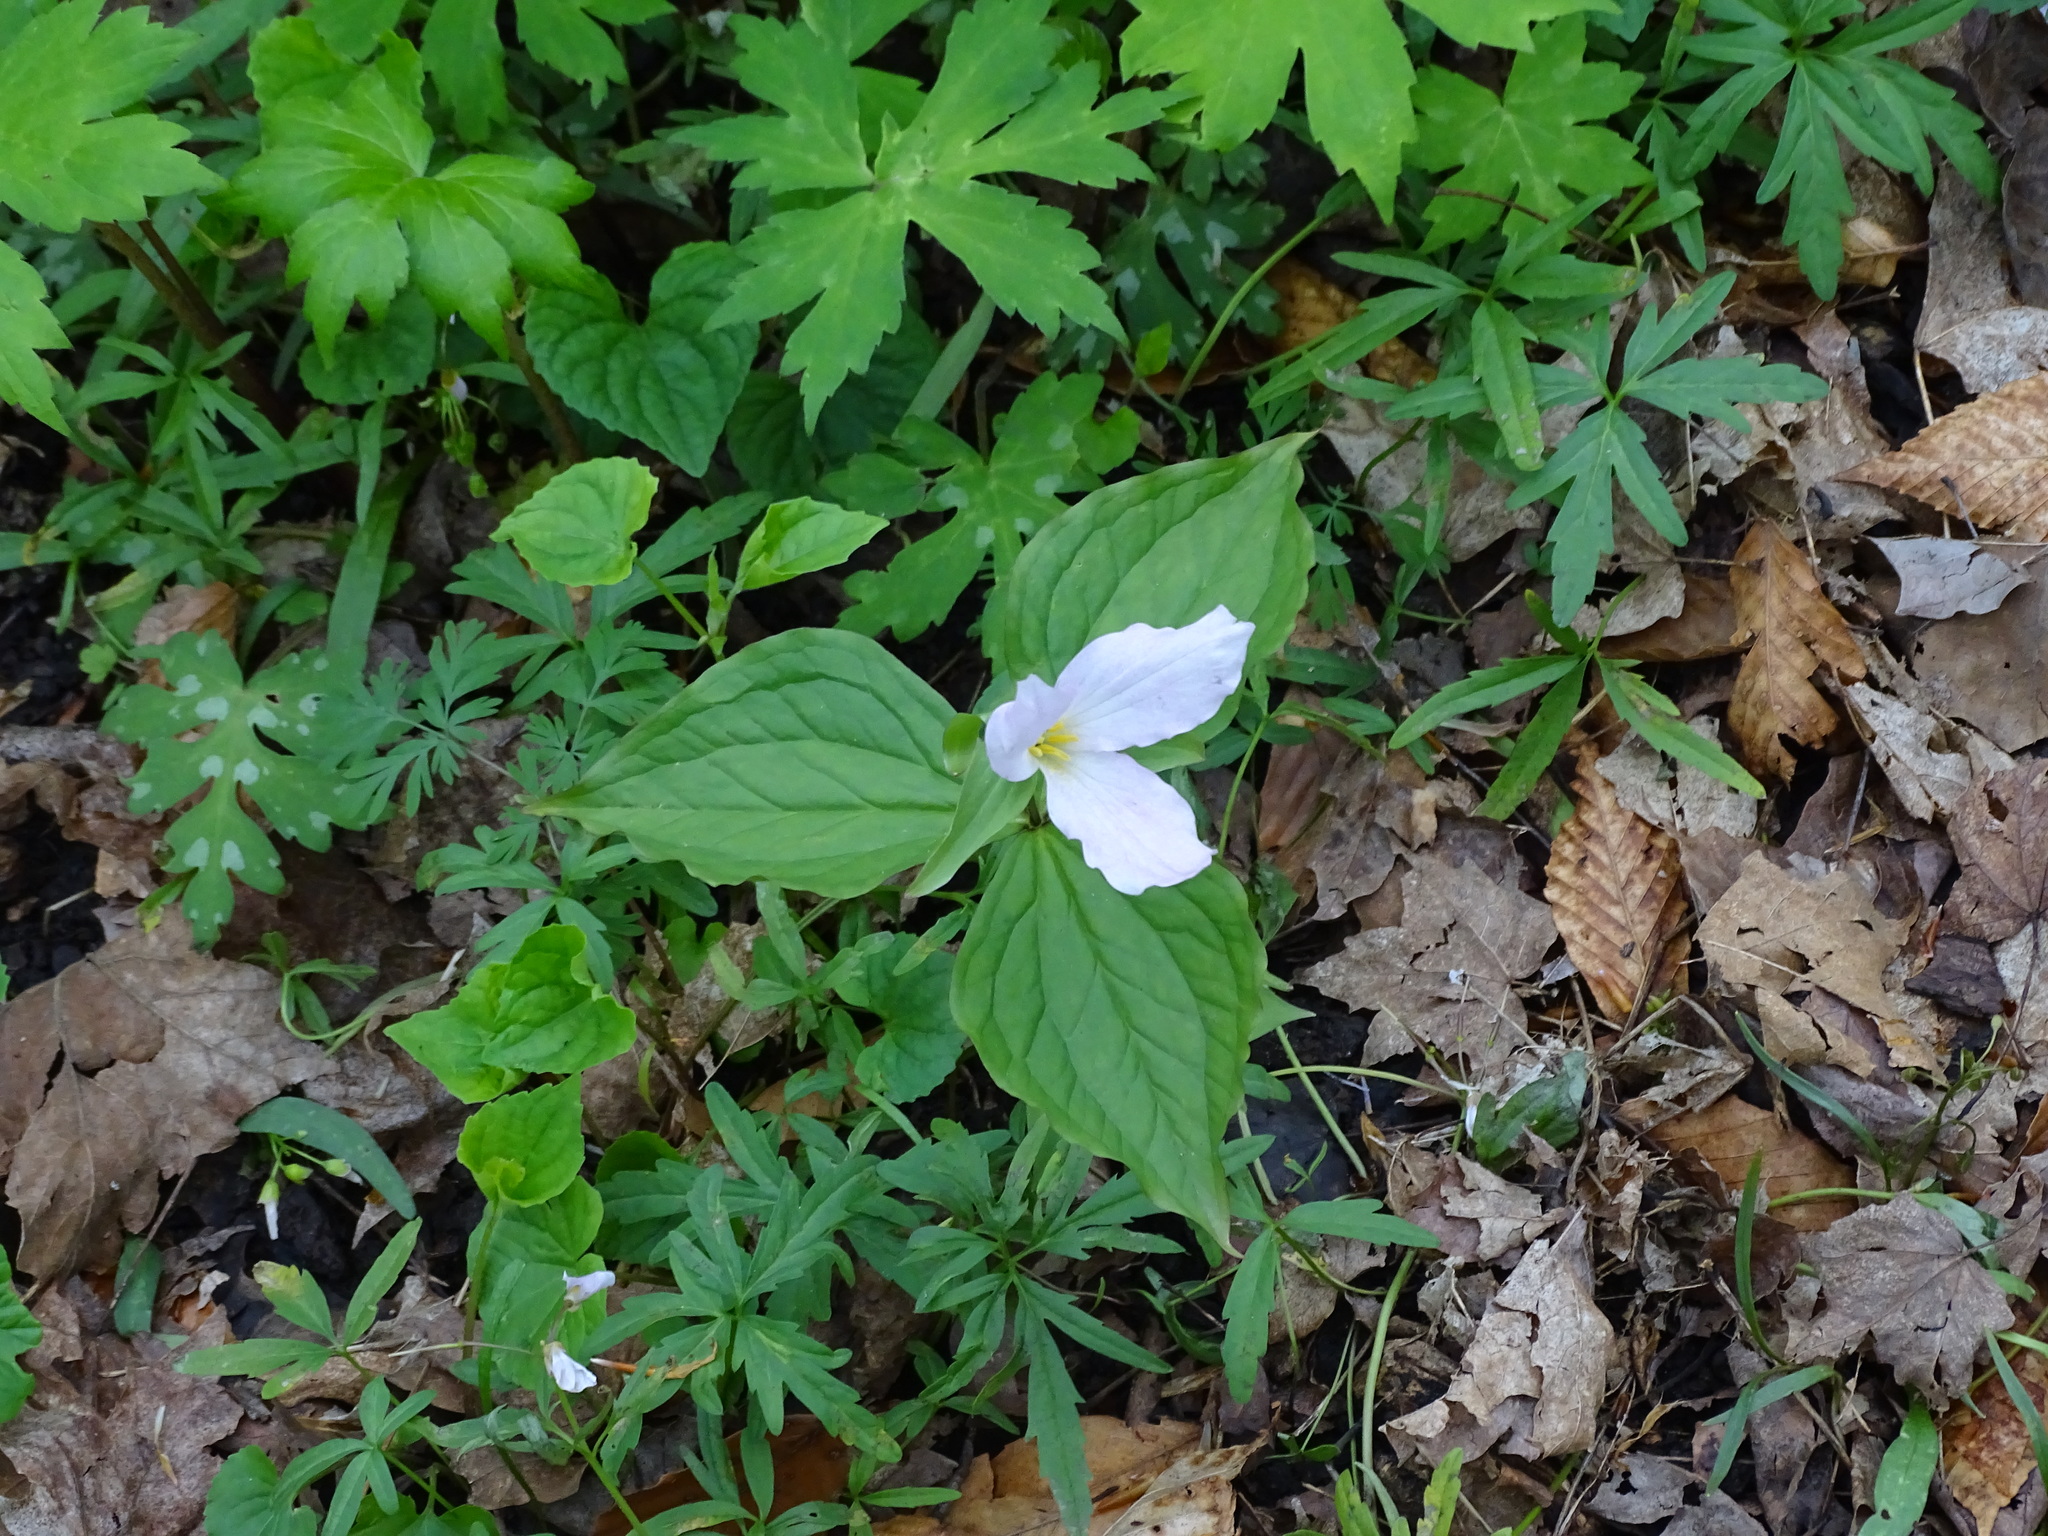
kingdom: Plantae
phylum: Tracheophyta
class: Liliopsida
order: Liliales
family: Melanthiaceae
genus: Trillium
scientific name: Trillium grandiflorum
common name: Great white trillium
